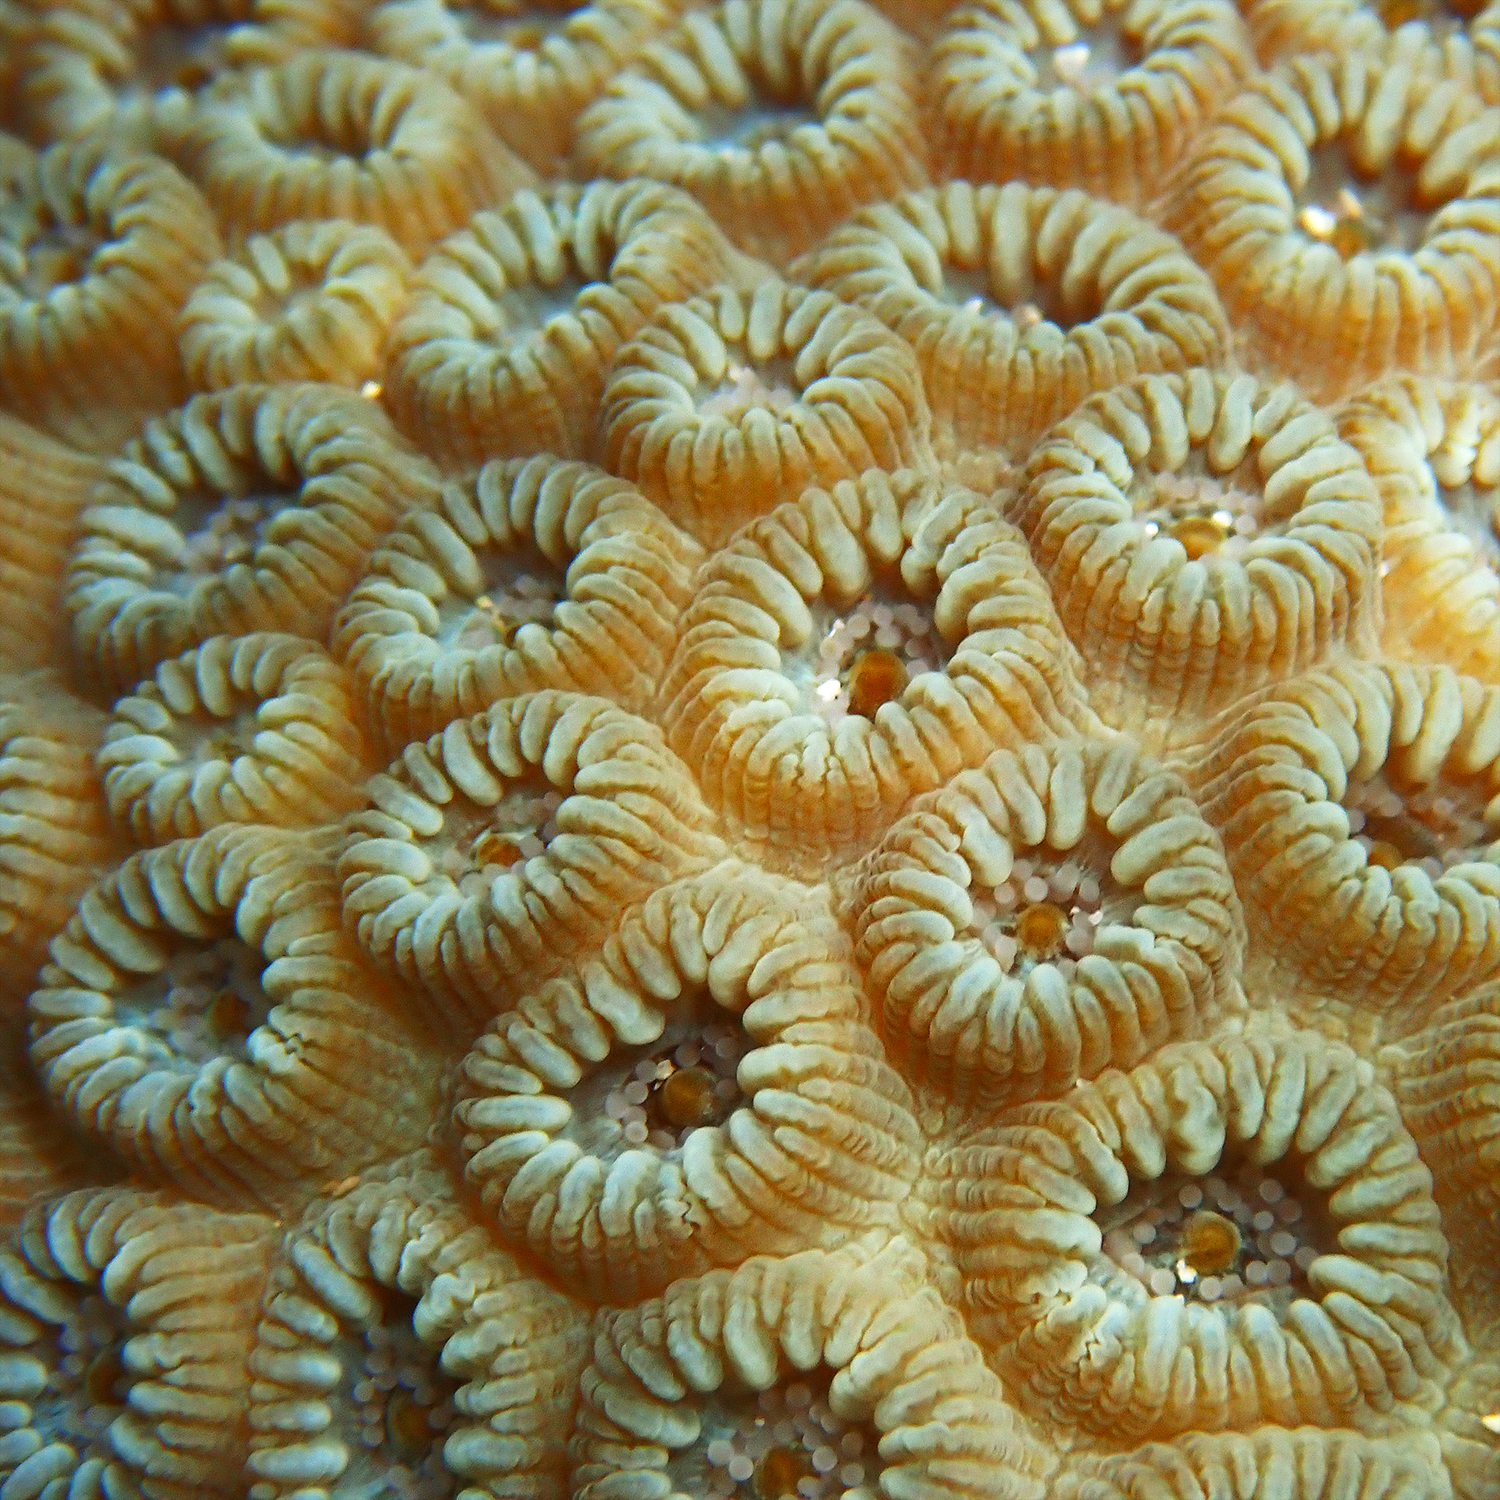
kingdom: Animalia
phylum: Cnidaria
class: Anthozoa
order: Scleractinia
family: Merulinidae
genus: Astrea
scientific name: Astrea curta
